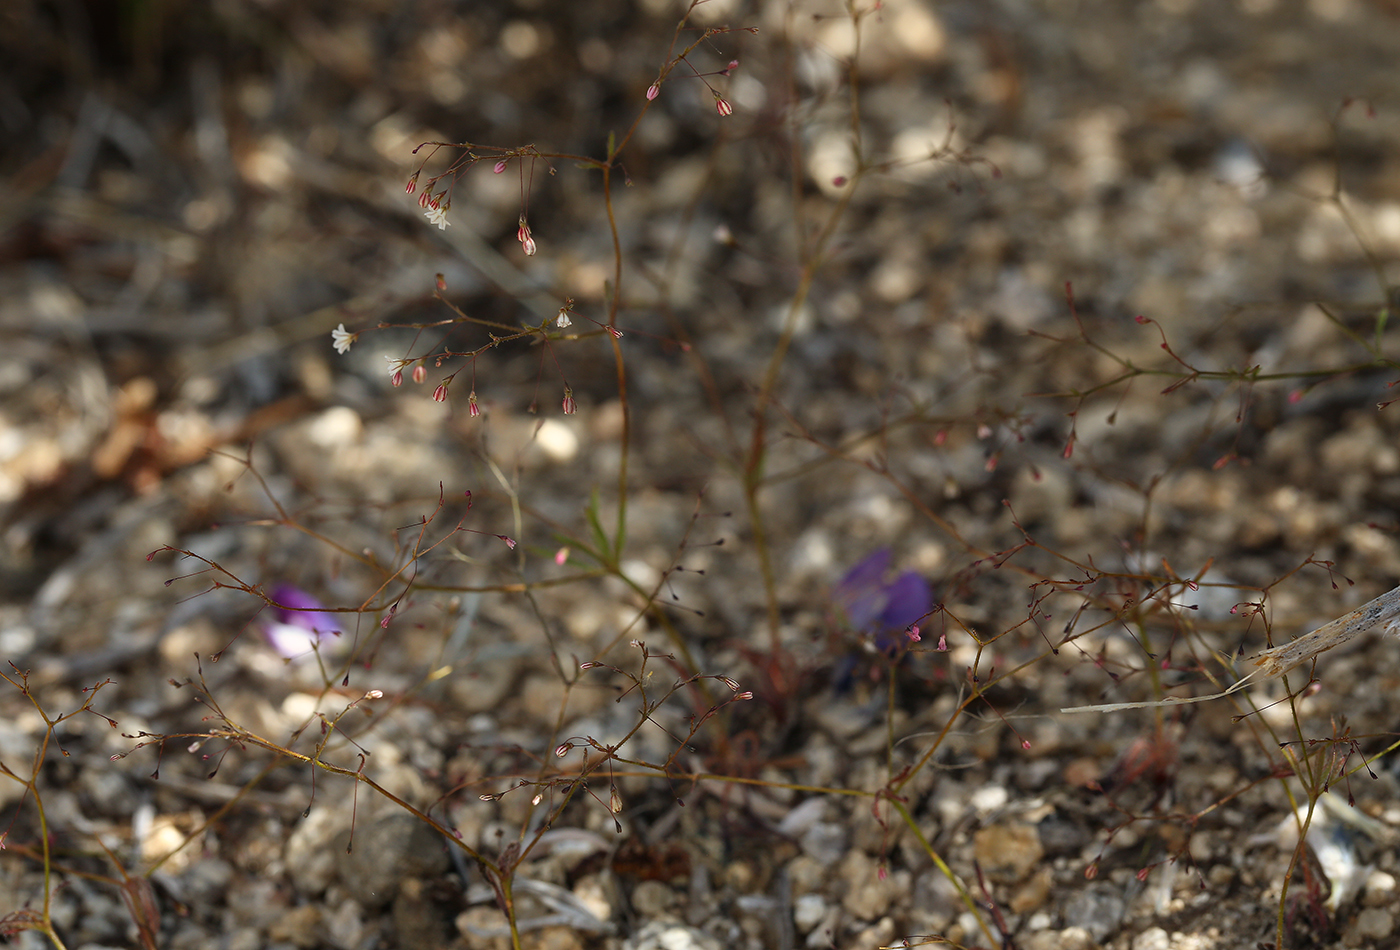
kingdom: Plantae
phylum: Tracheophyta
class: Magnoliopsida
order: Caryophyllales
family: Polygonaceae
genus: Eriogonum
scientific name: Eriogonum spergulinum
